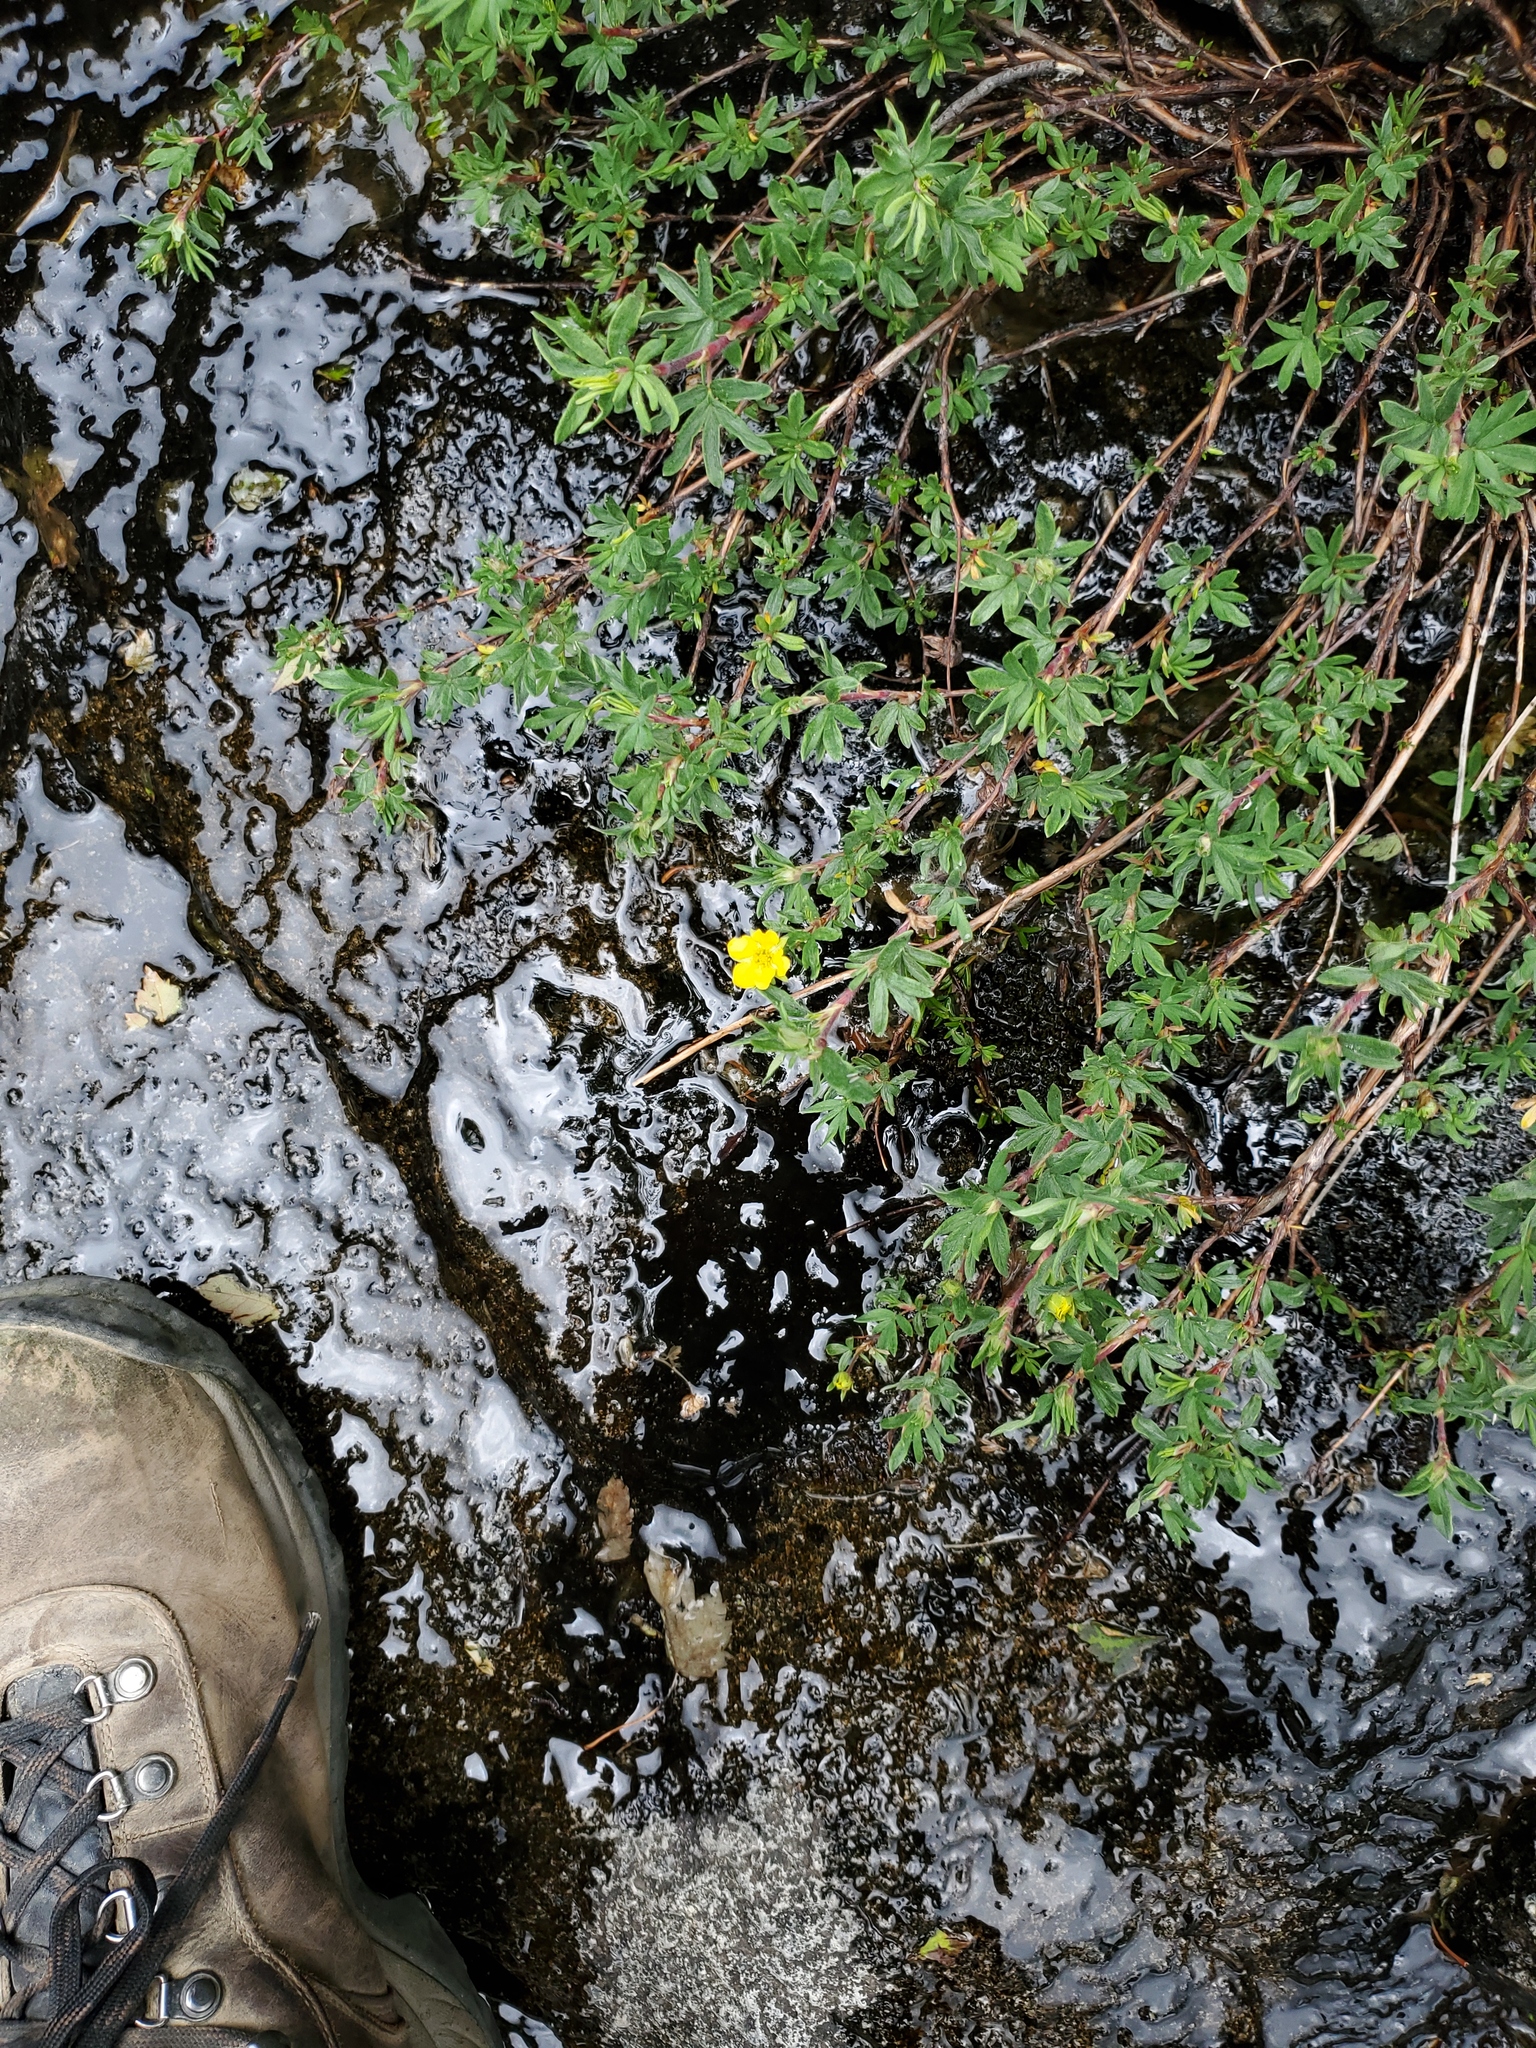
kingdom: Plantae
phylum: Tracheophyta
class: Magnoliopsida
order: Rosales
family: Rosaceae
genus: Dasiphora
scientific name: Dasiphora fruticosa
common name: Shrubby cinquefoil
